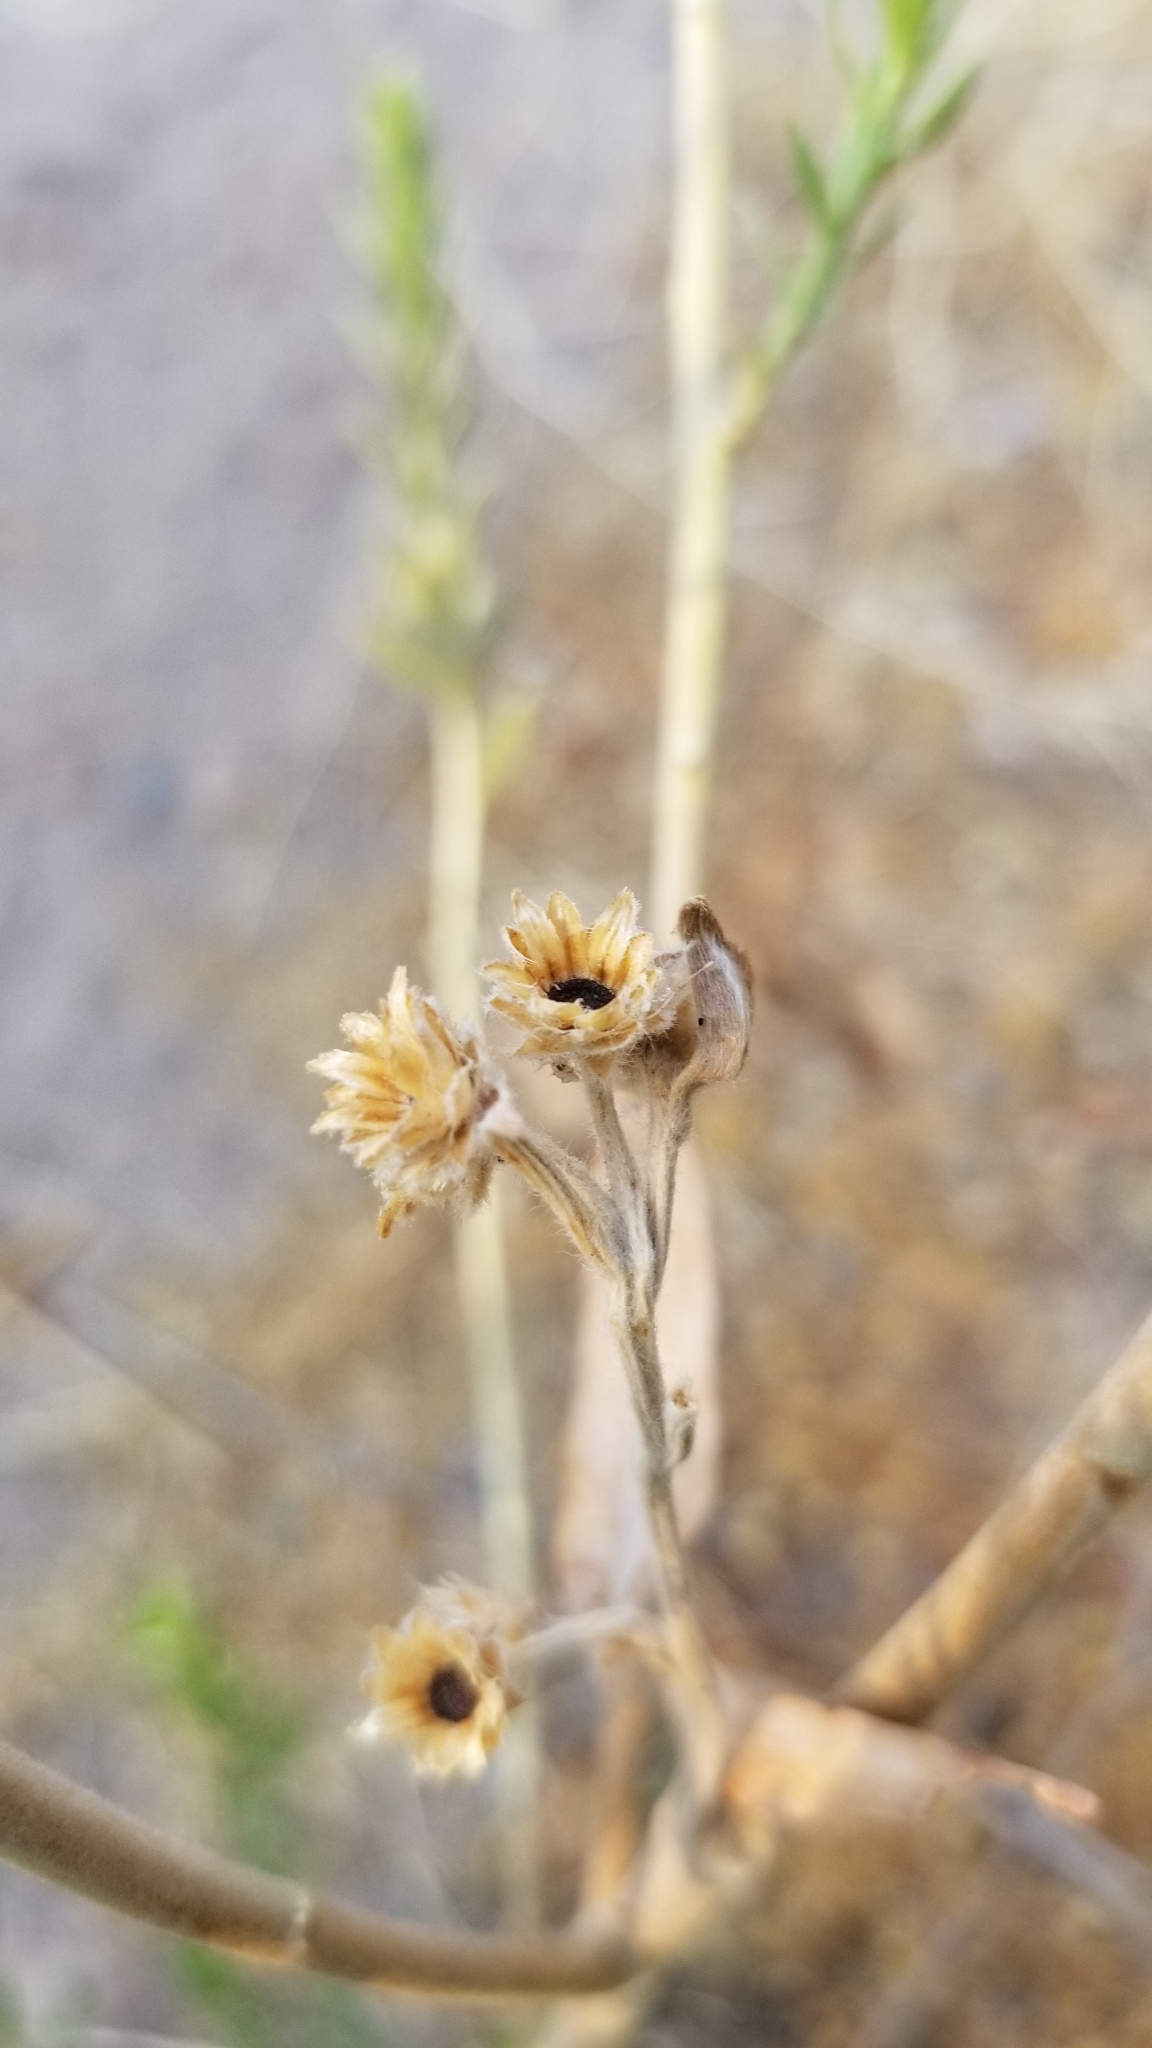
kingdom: Plantae
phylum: Tracheophyta
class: Magnoliopsida
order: Asterales
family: Asteraceae
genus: Pluchea
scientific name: Pluchea sericea
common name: Arrow-weed
